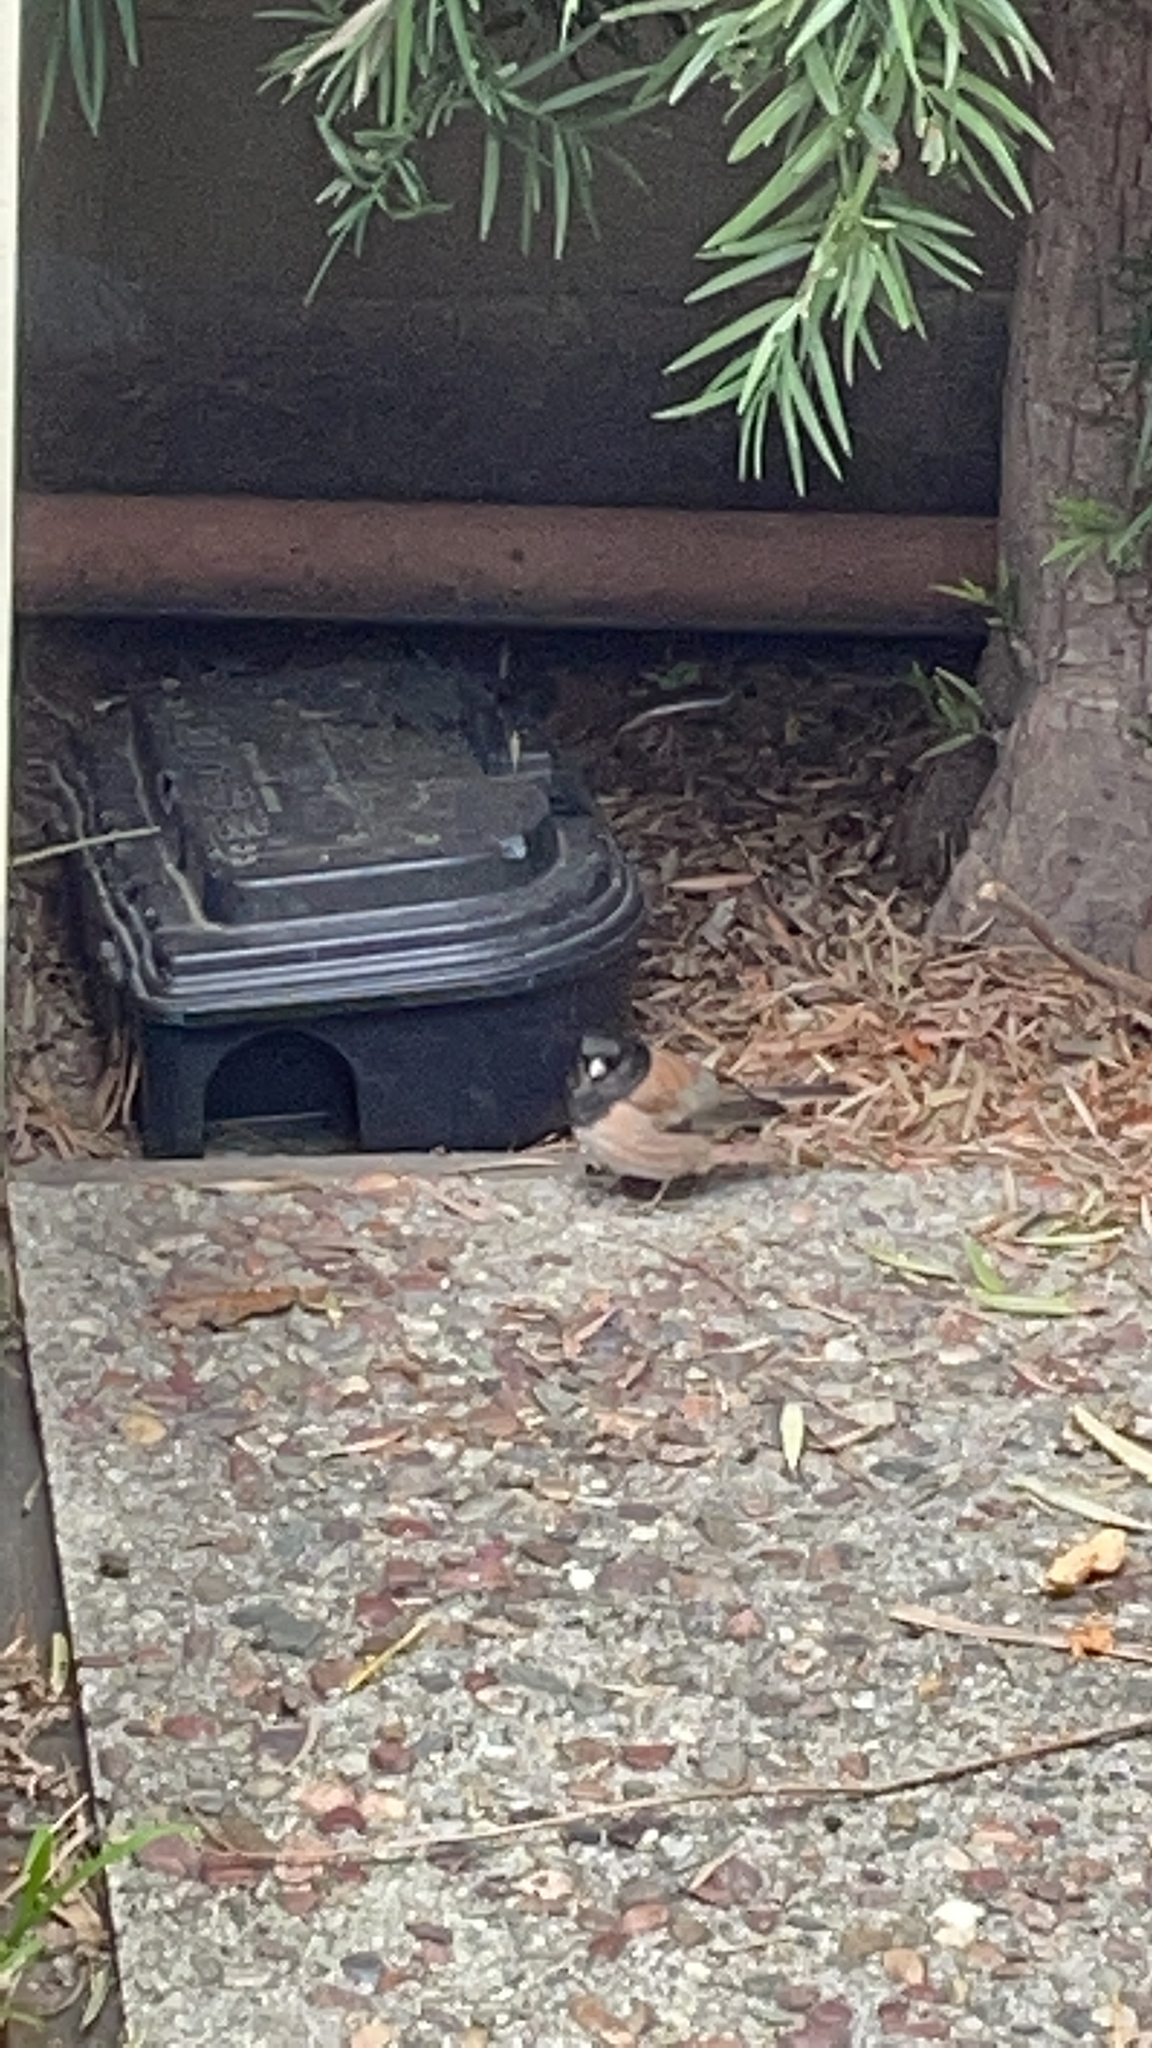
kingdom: Animalia
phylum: Chordata
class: Aves
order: Passeriformes
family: Passerellidae
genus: Junco
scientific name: Junco hyemalis
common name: Dark-eyed junco
